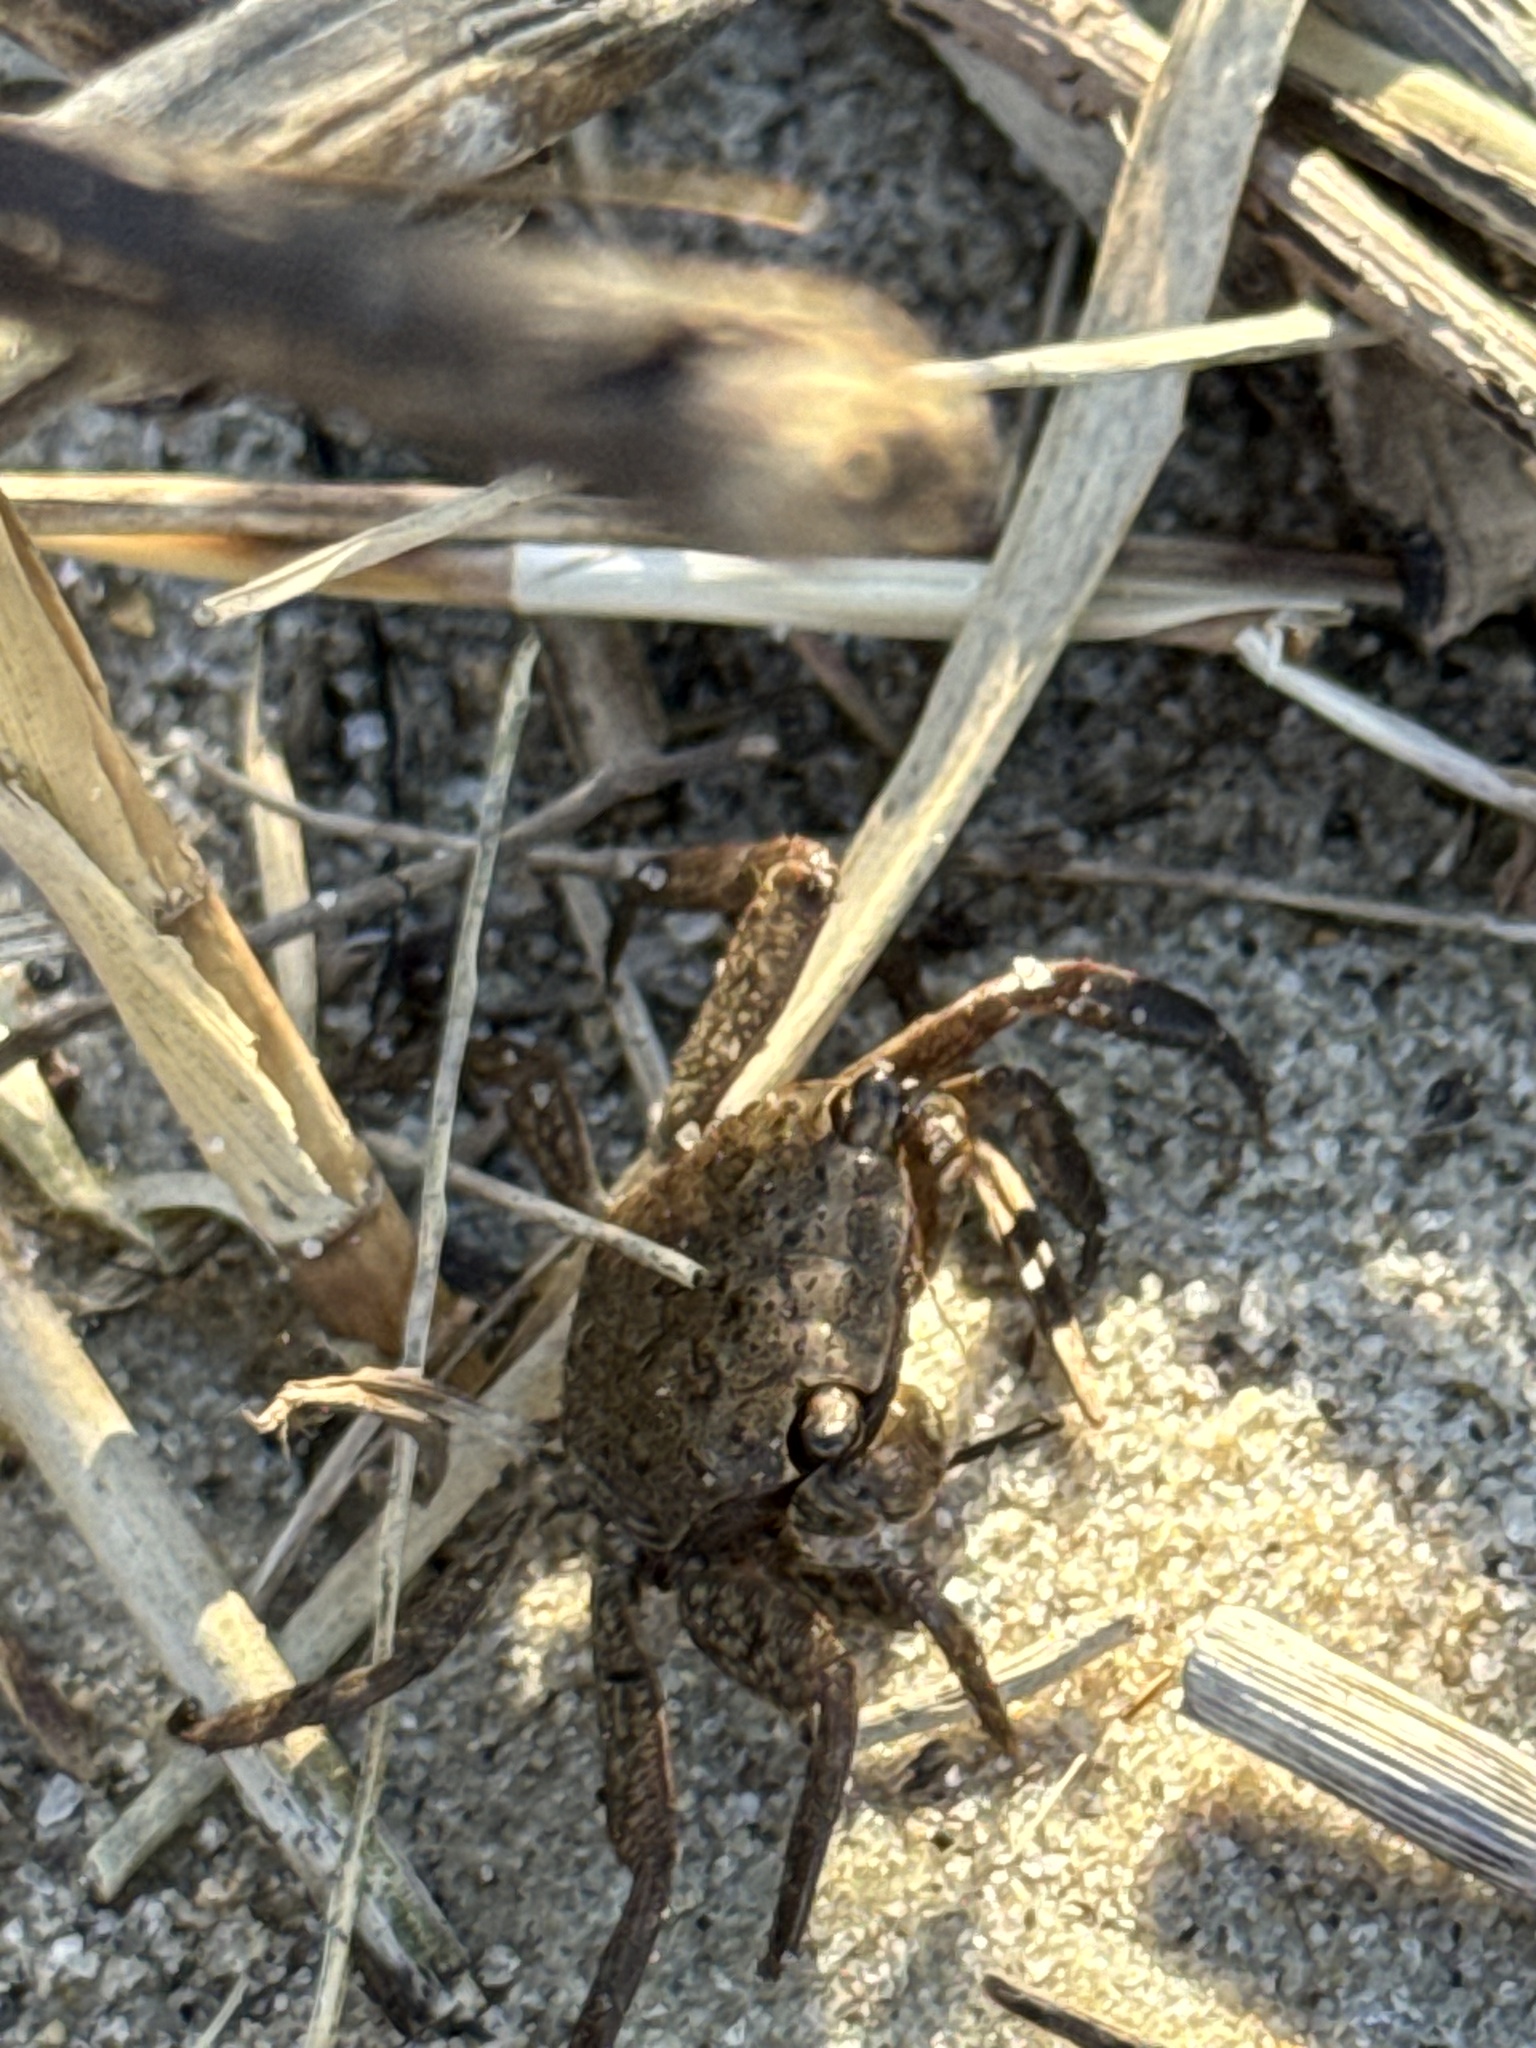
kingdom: Animalia
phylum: Arthropoda
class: Malacostraca
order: Decapoda
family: Sesarmidae
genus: Armases
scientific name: Armases cinereum
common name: Squareback marsh crab
